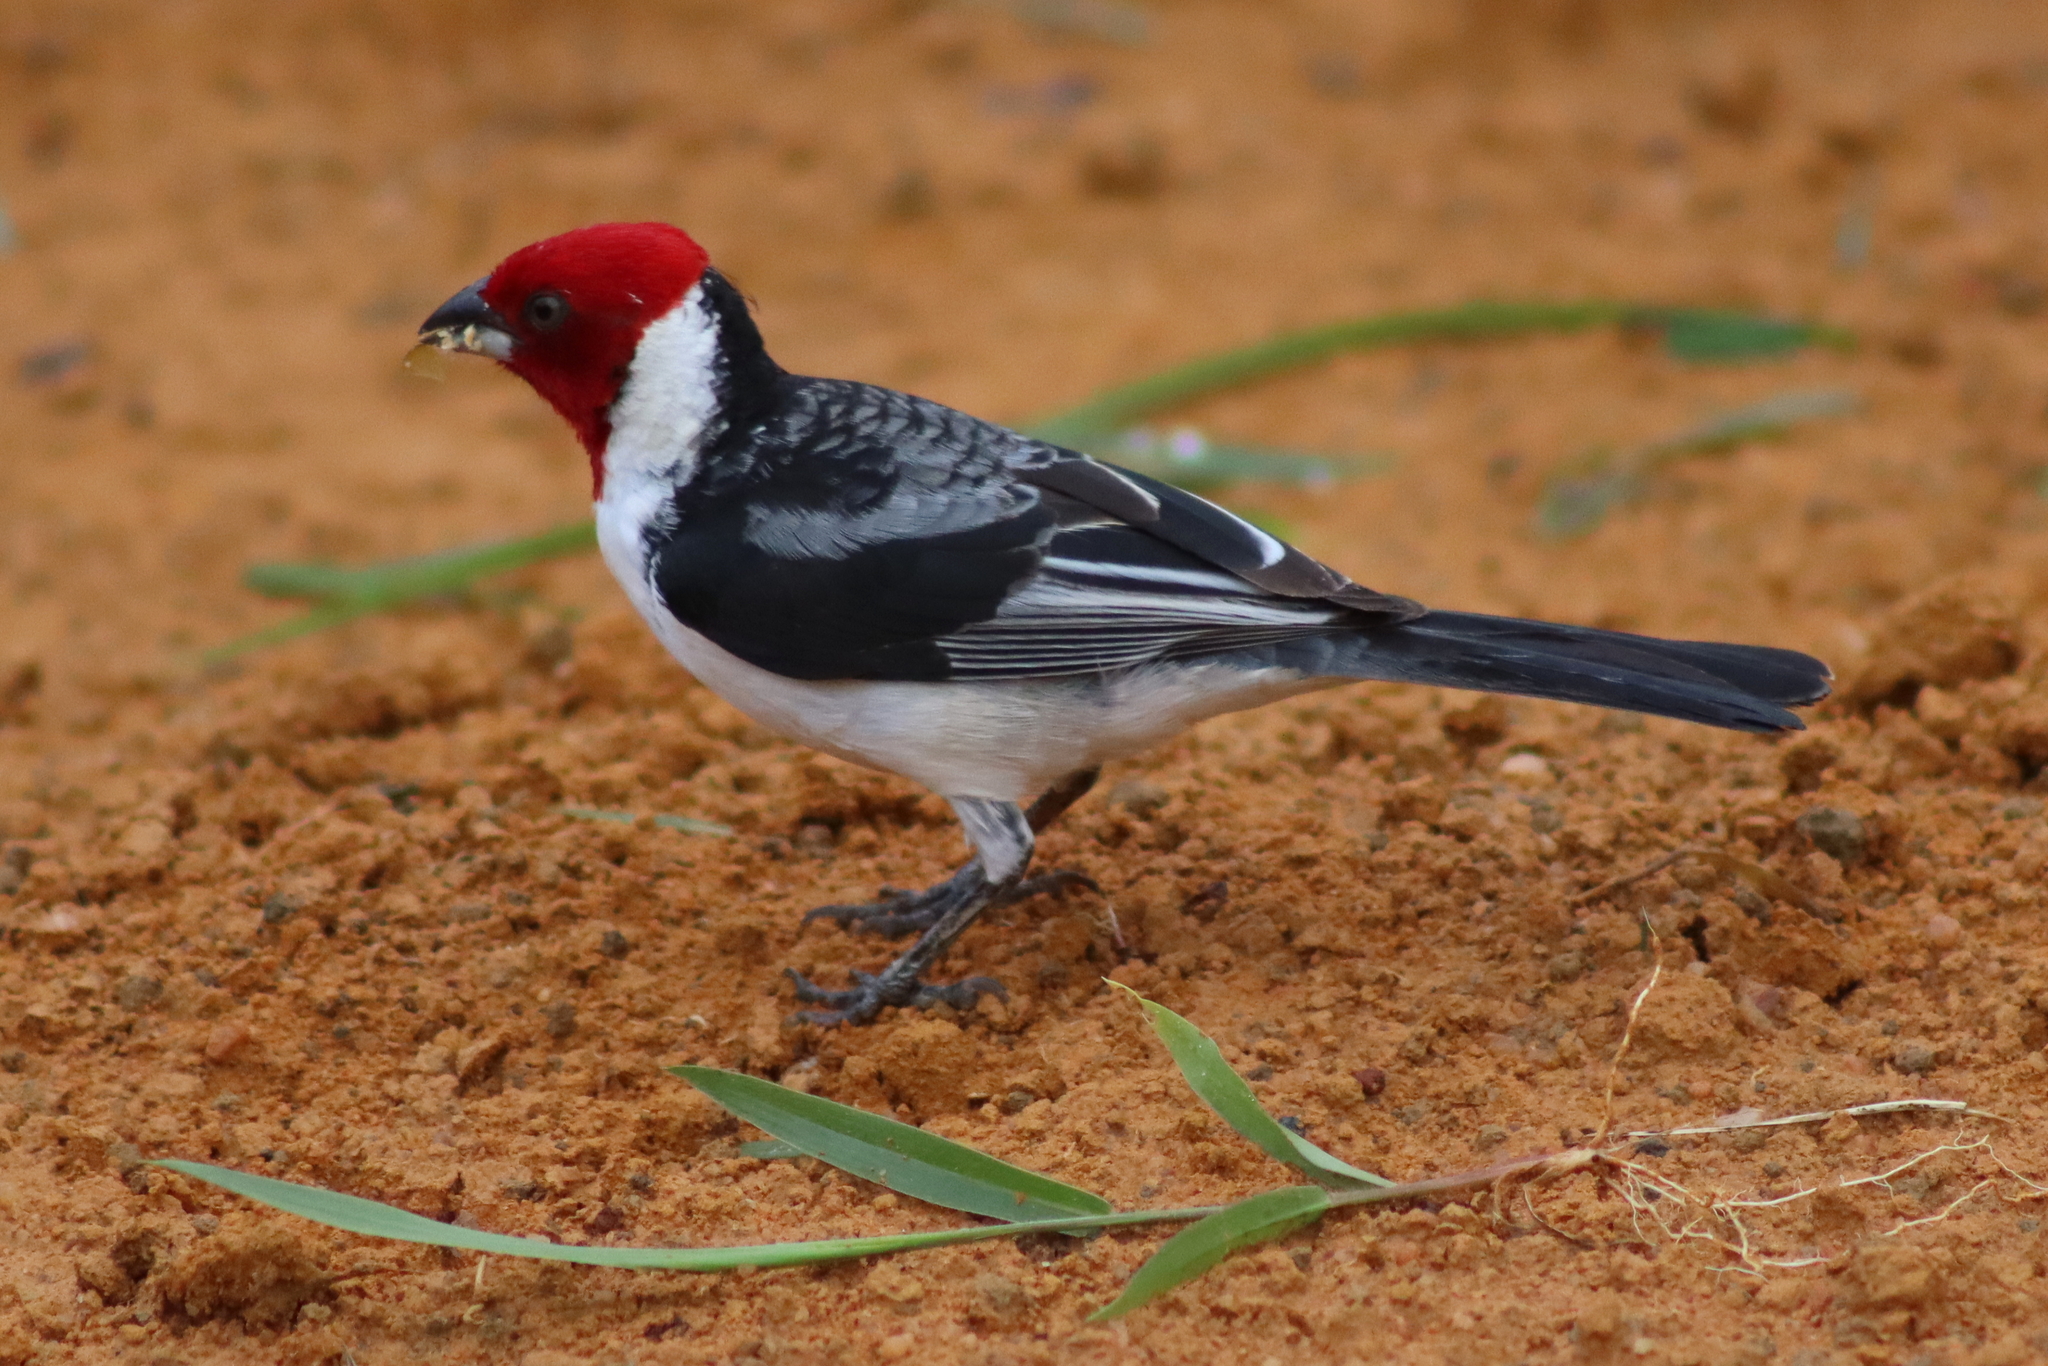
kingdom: Animalia
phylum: Chordata
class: Aves
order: Passeriformes
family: Thraupidae
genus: Paroaria
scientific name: Paroaria dominicana
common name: Red-cowled cardinal
